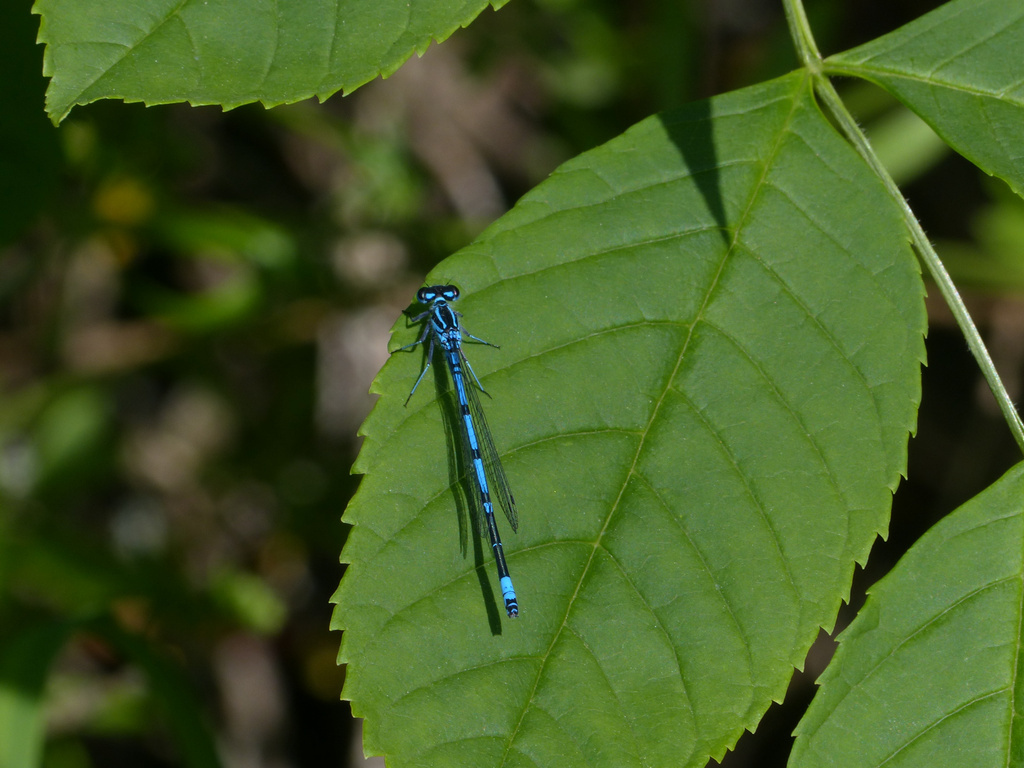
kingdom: Animalia
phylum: Arthropoda
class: Insecta
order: Odonata
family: Coenagrionidae
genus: Coenagrion
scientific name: Coenagrion puella
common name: Azure damselfly
